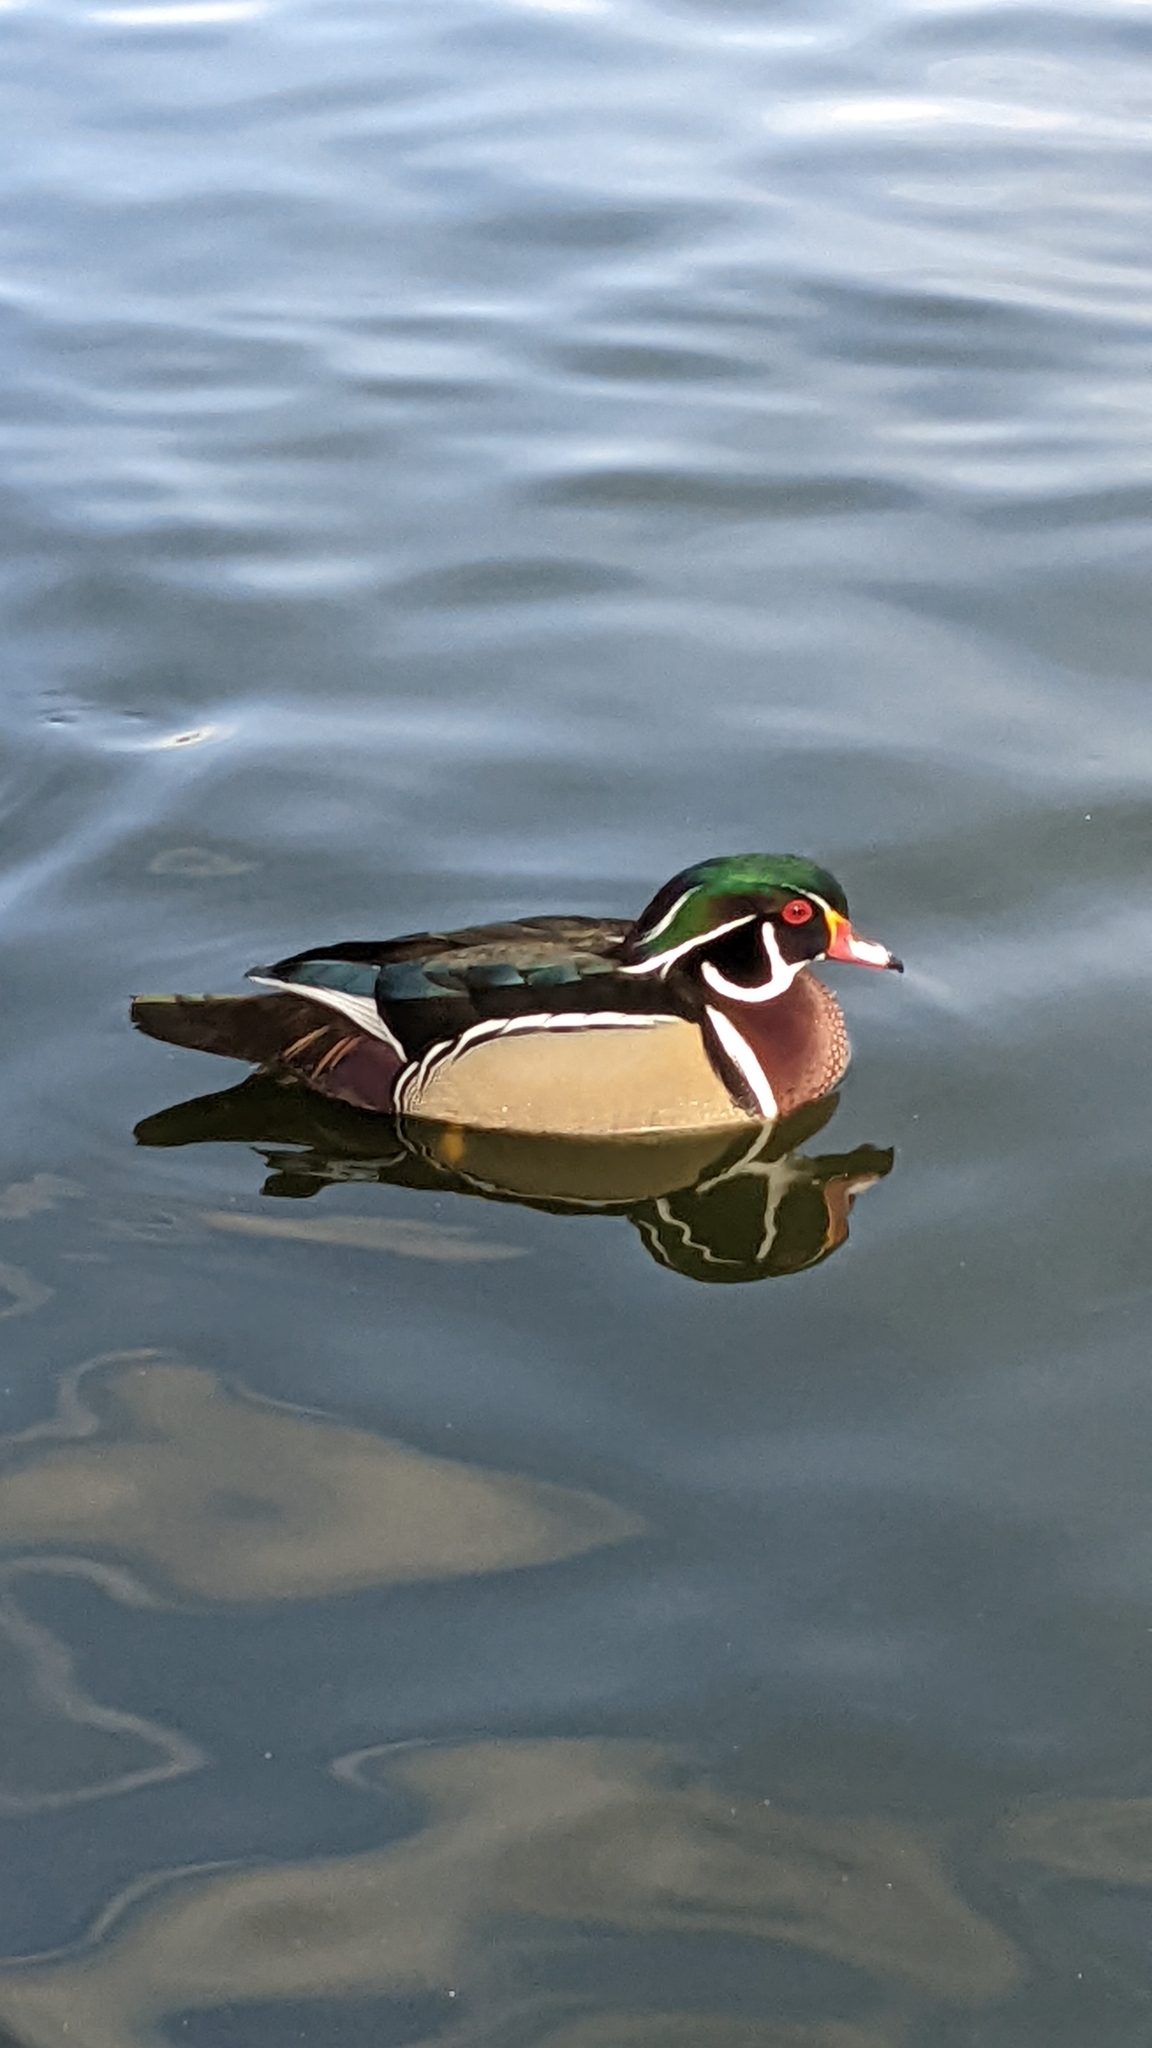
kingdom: Animalia
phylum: Chordata
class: Aves
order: Anseriformes
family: Anatidae
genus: Aix
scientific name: Aix sponsa
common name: Wood duck
